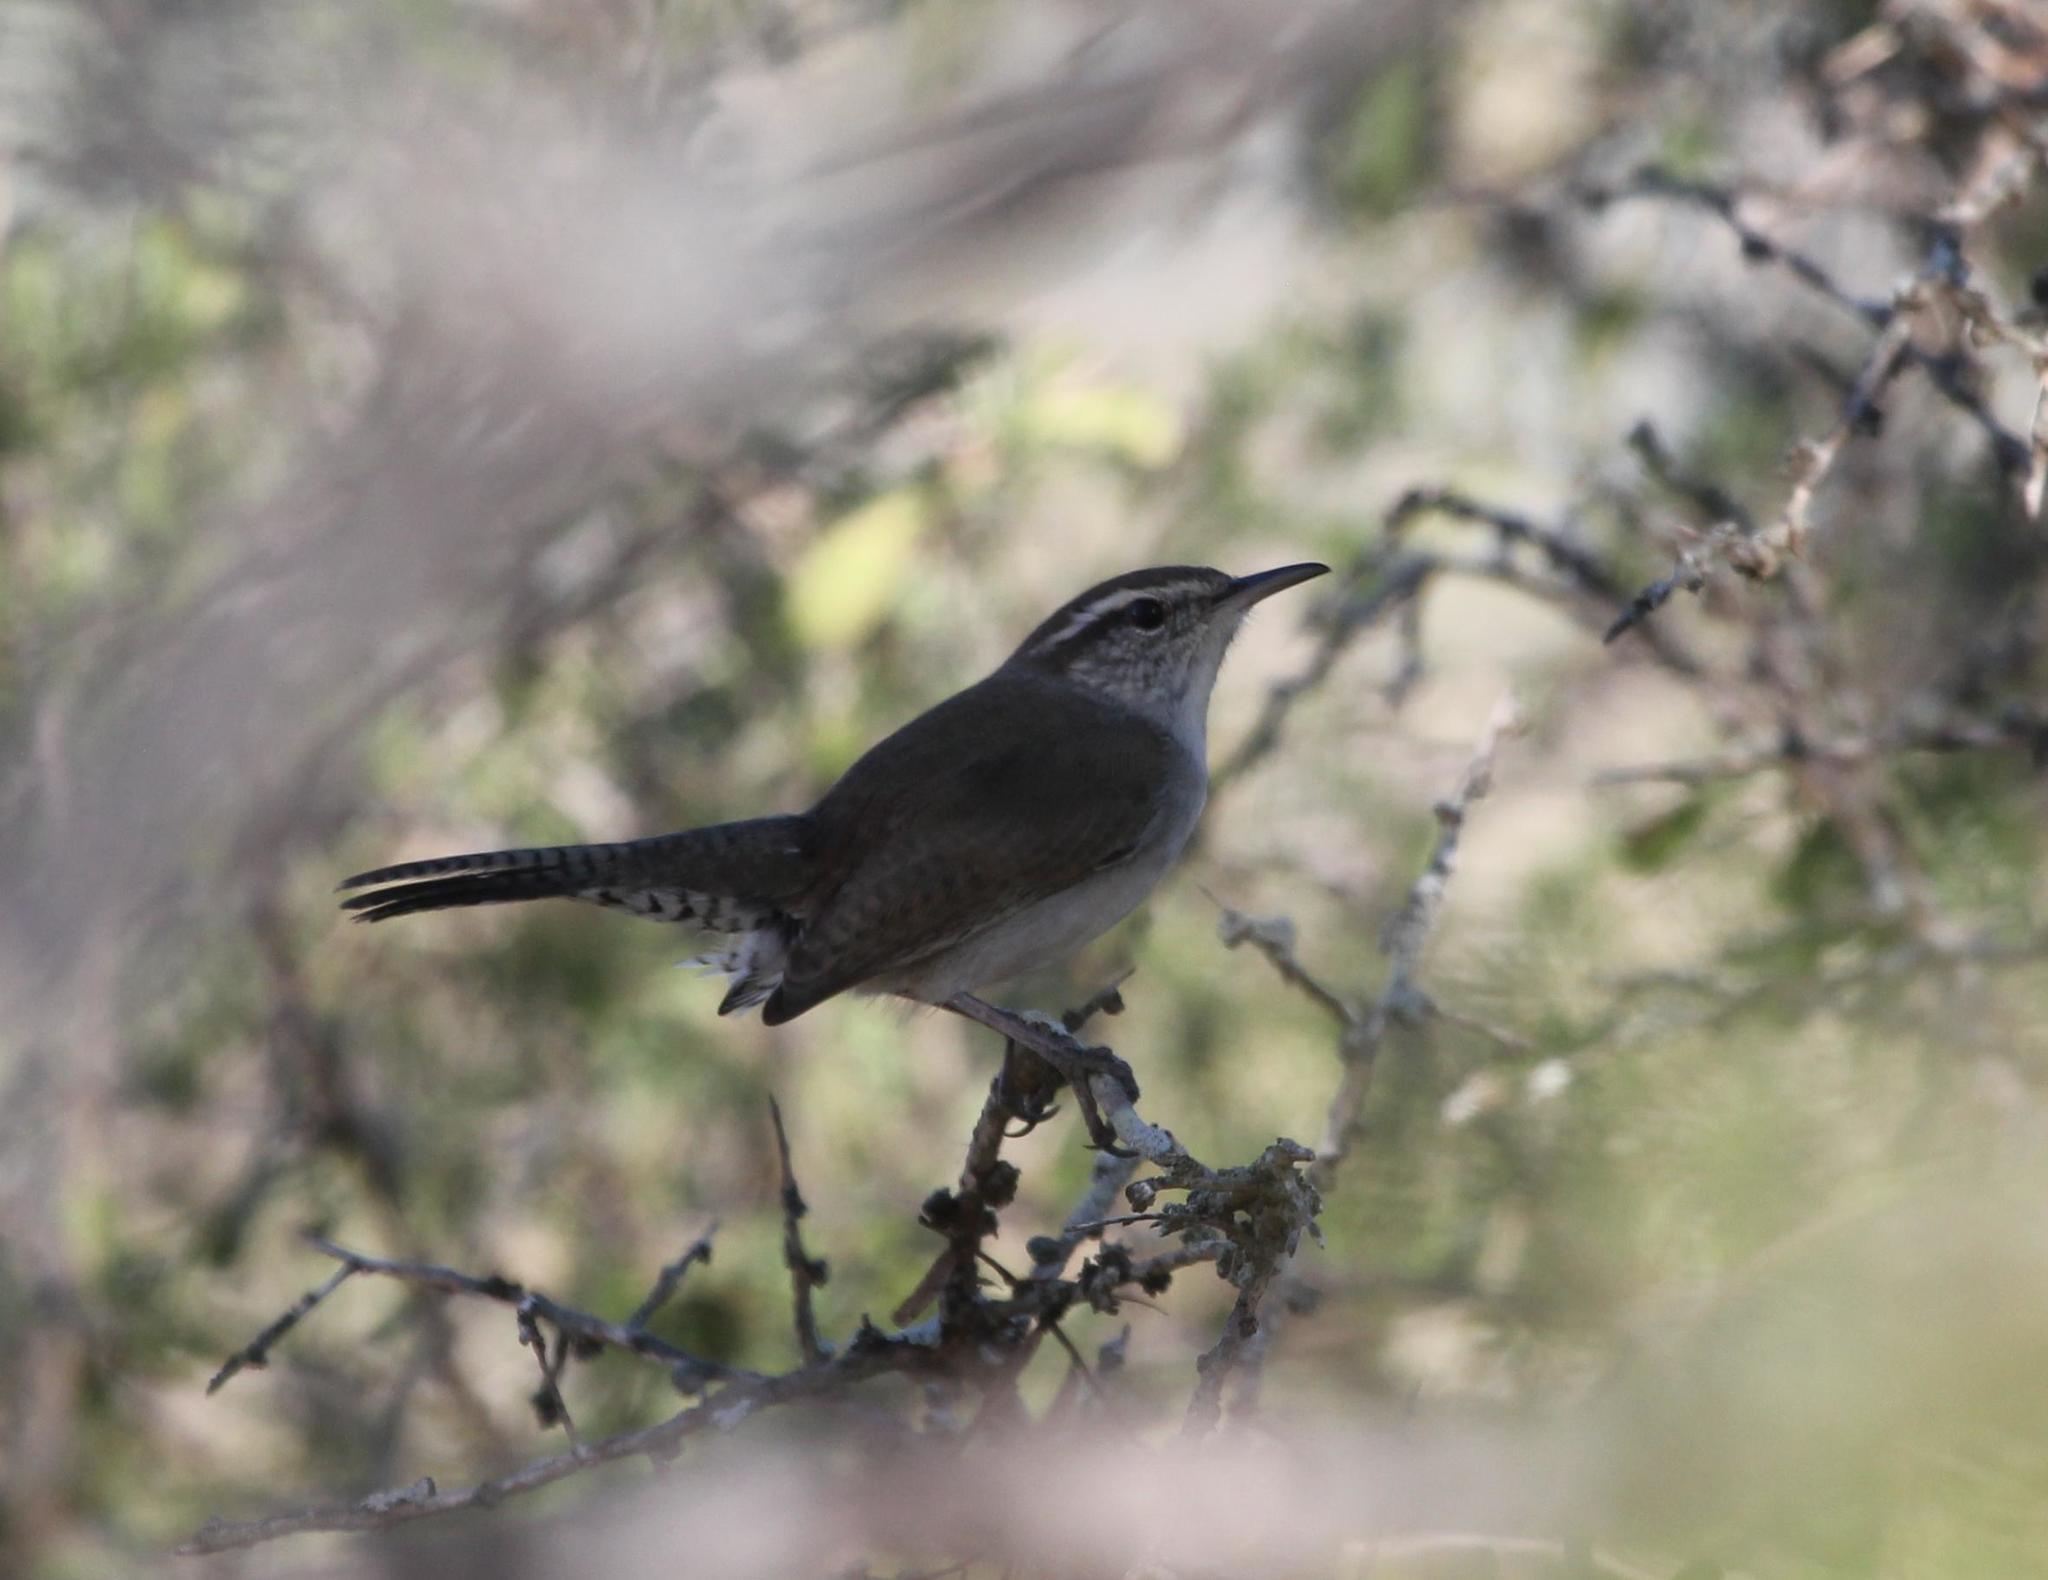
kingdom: Animalia
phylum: Chordata
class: Aves
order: Passeriformes
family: Troglodytidae
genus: Thryomanes
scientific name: Thryomanes bewickii
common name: Bewick's wren
